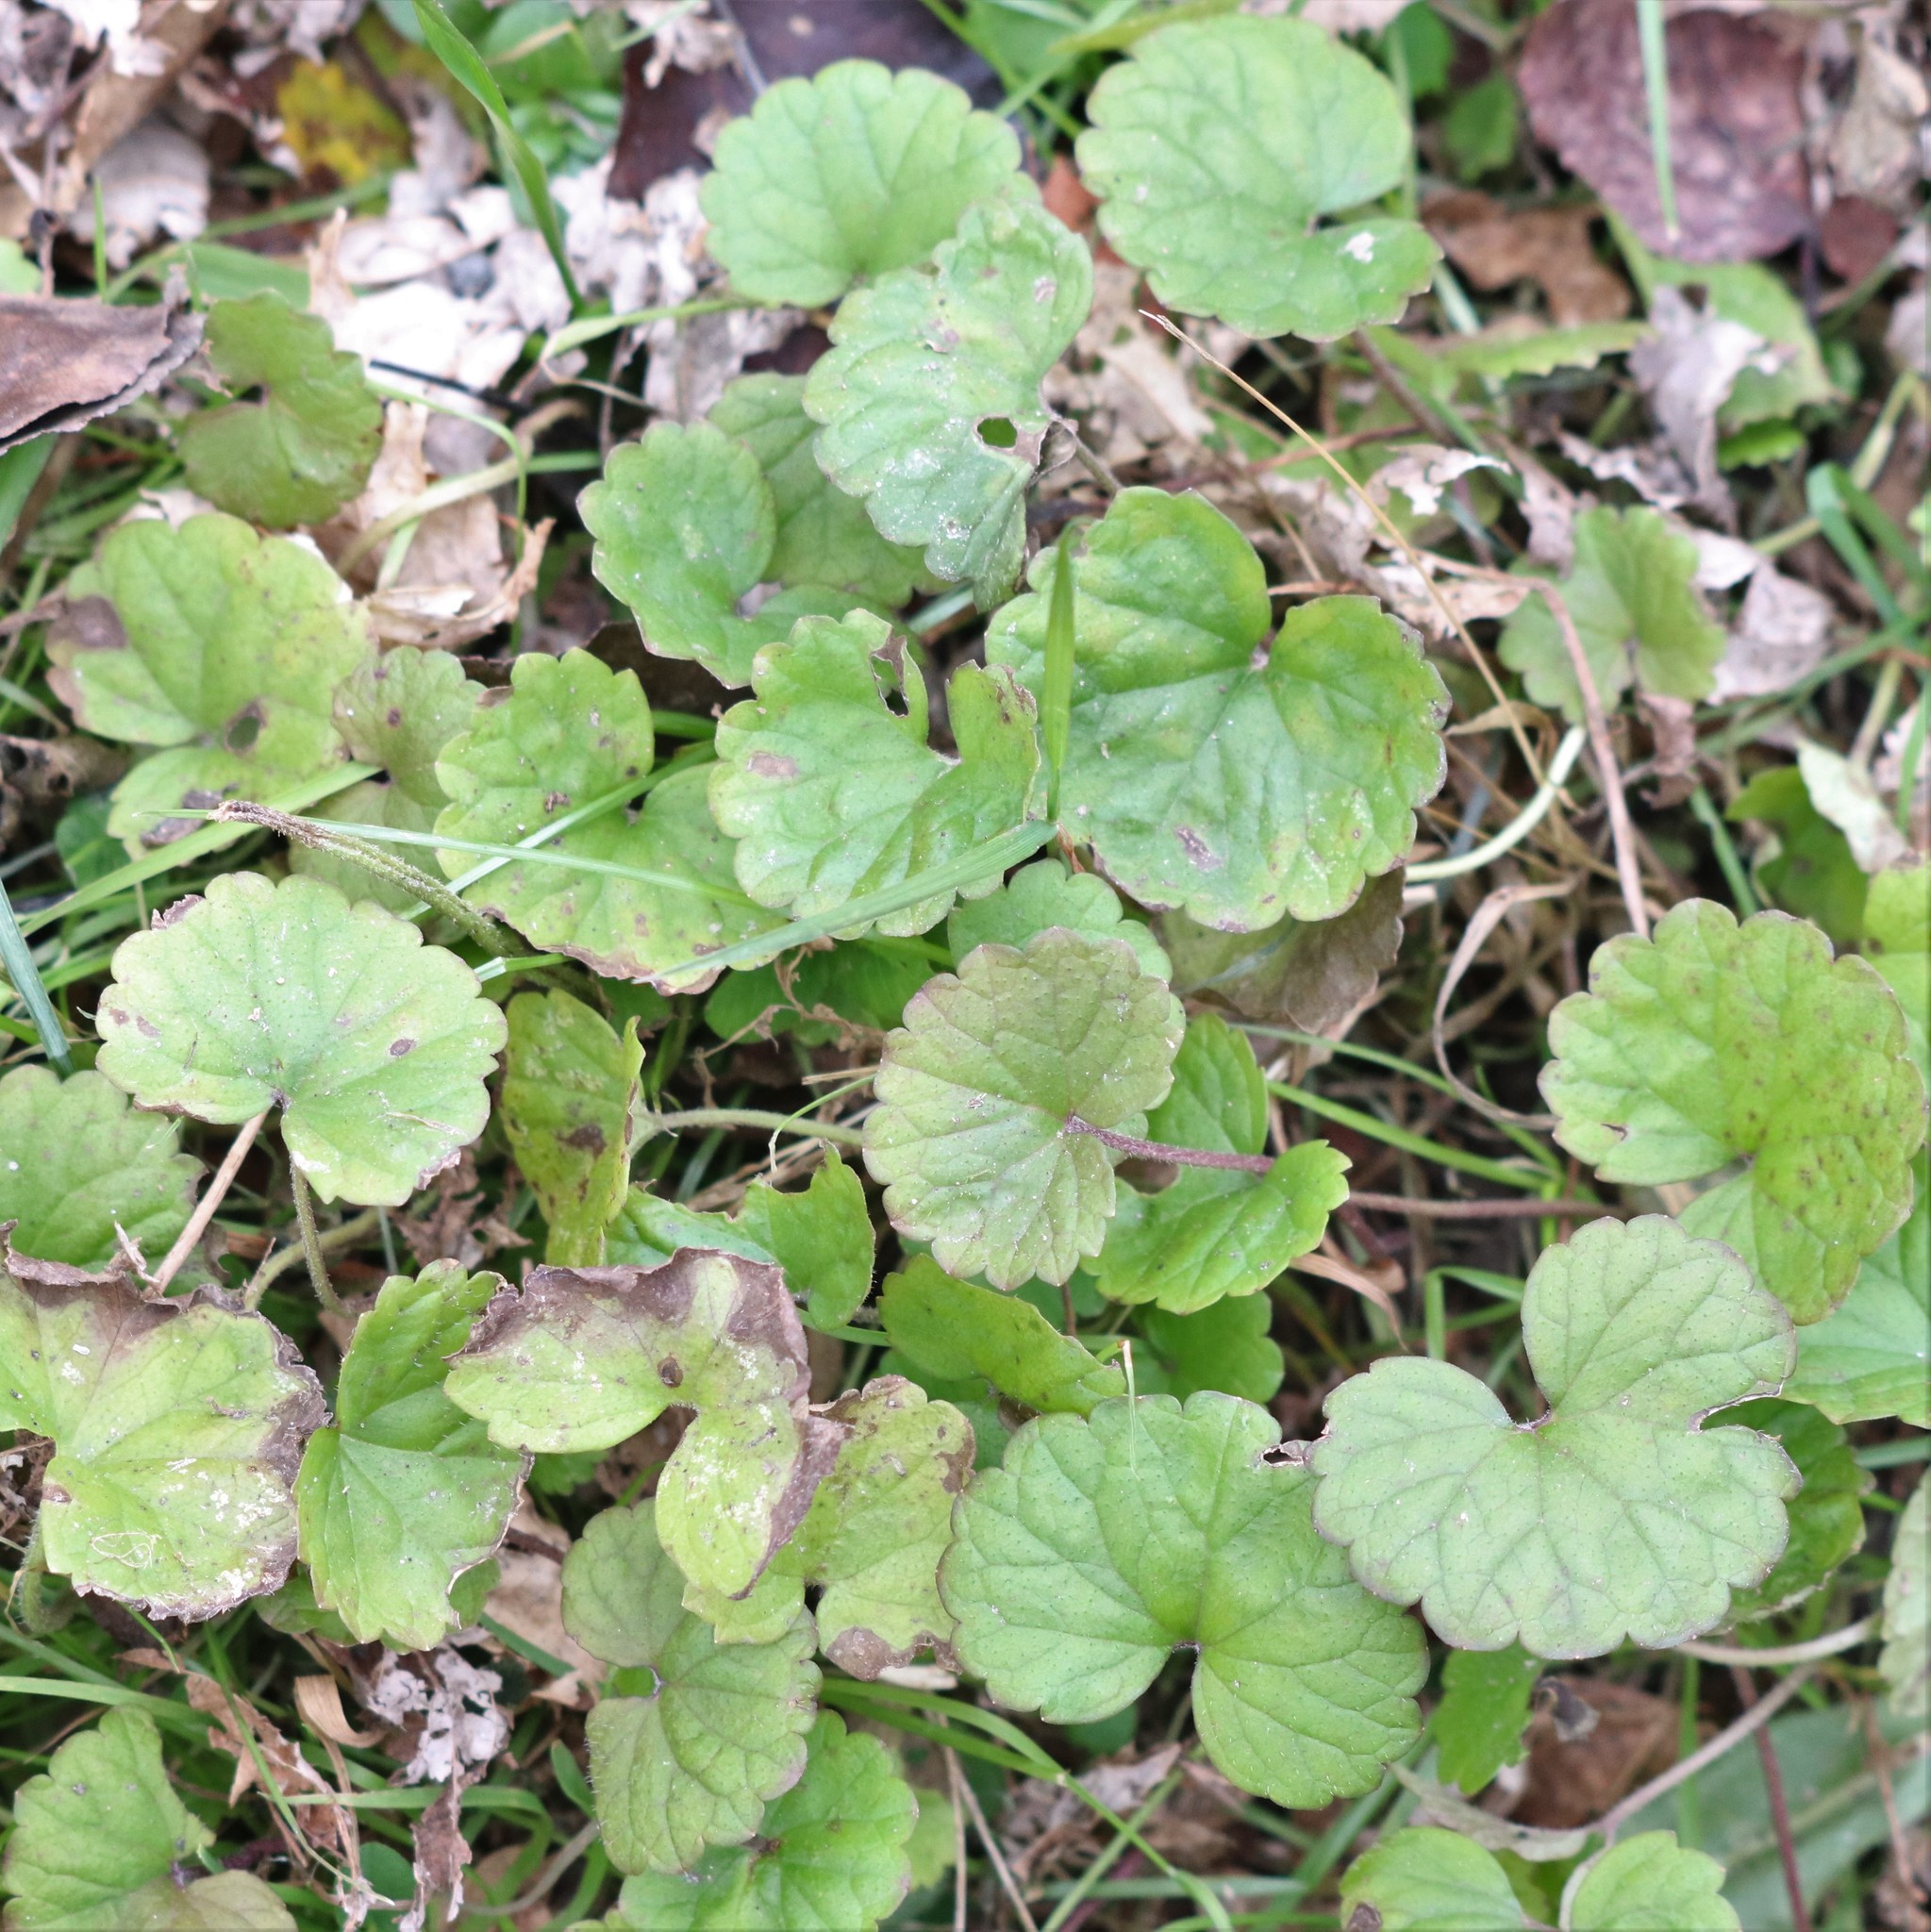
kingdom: Plantae
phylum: Tracheophyta
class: Magnoliopsida
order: Lamiales
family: Lamiaceae
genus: Glechoma
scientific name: Glechoma hederacea
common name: Ground ivy
